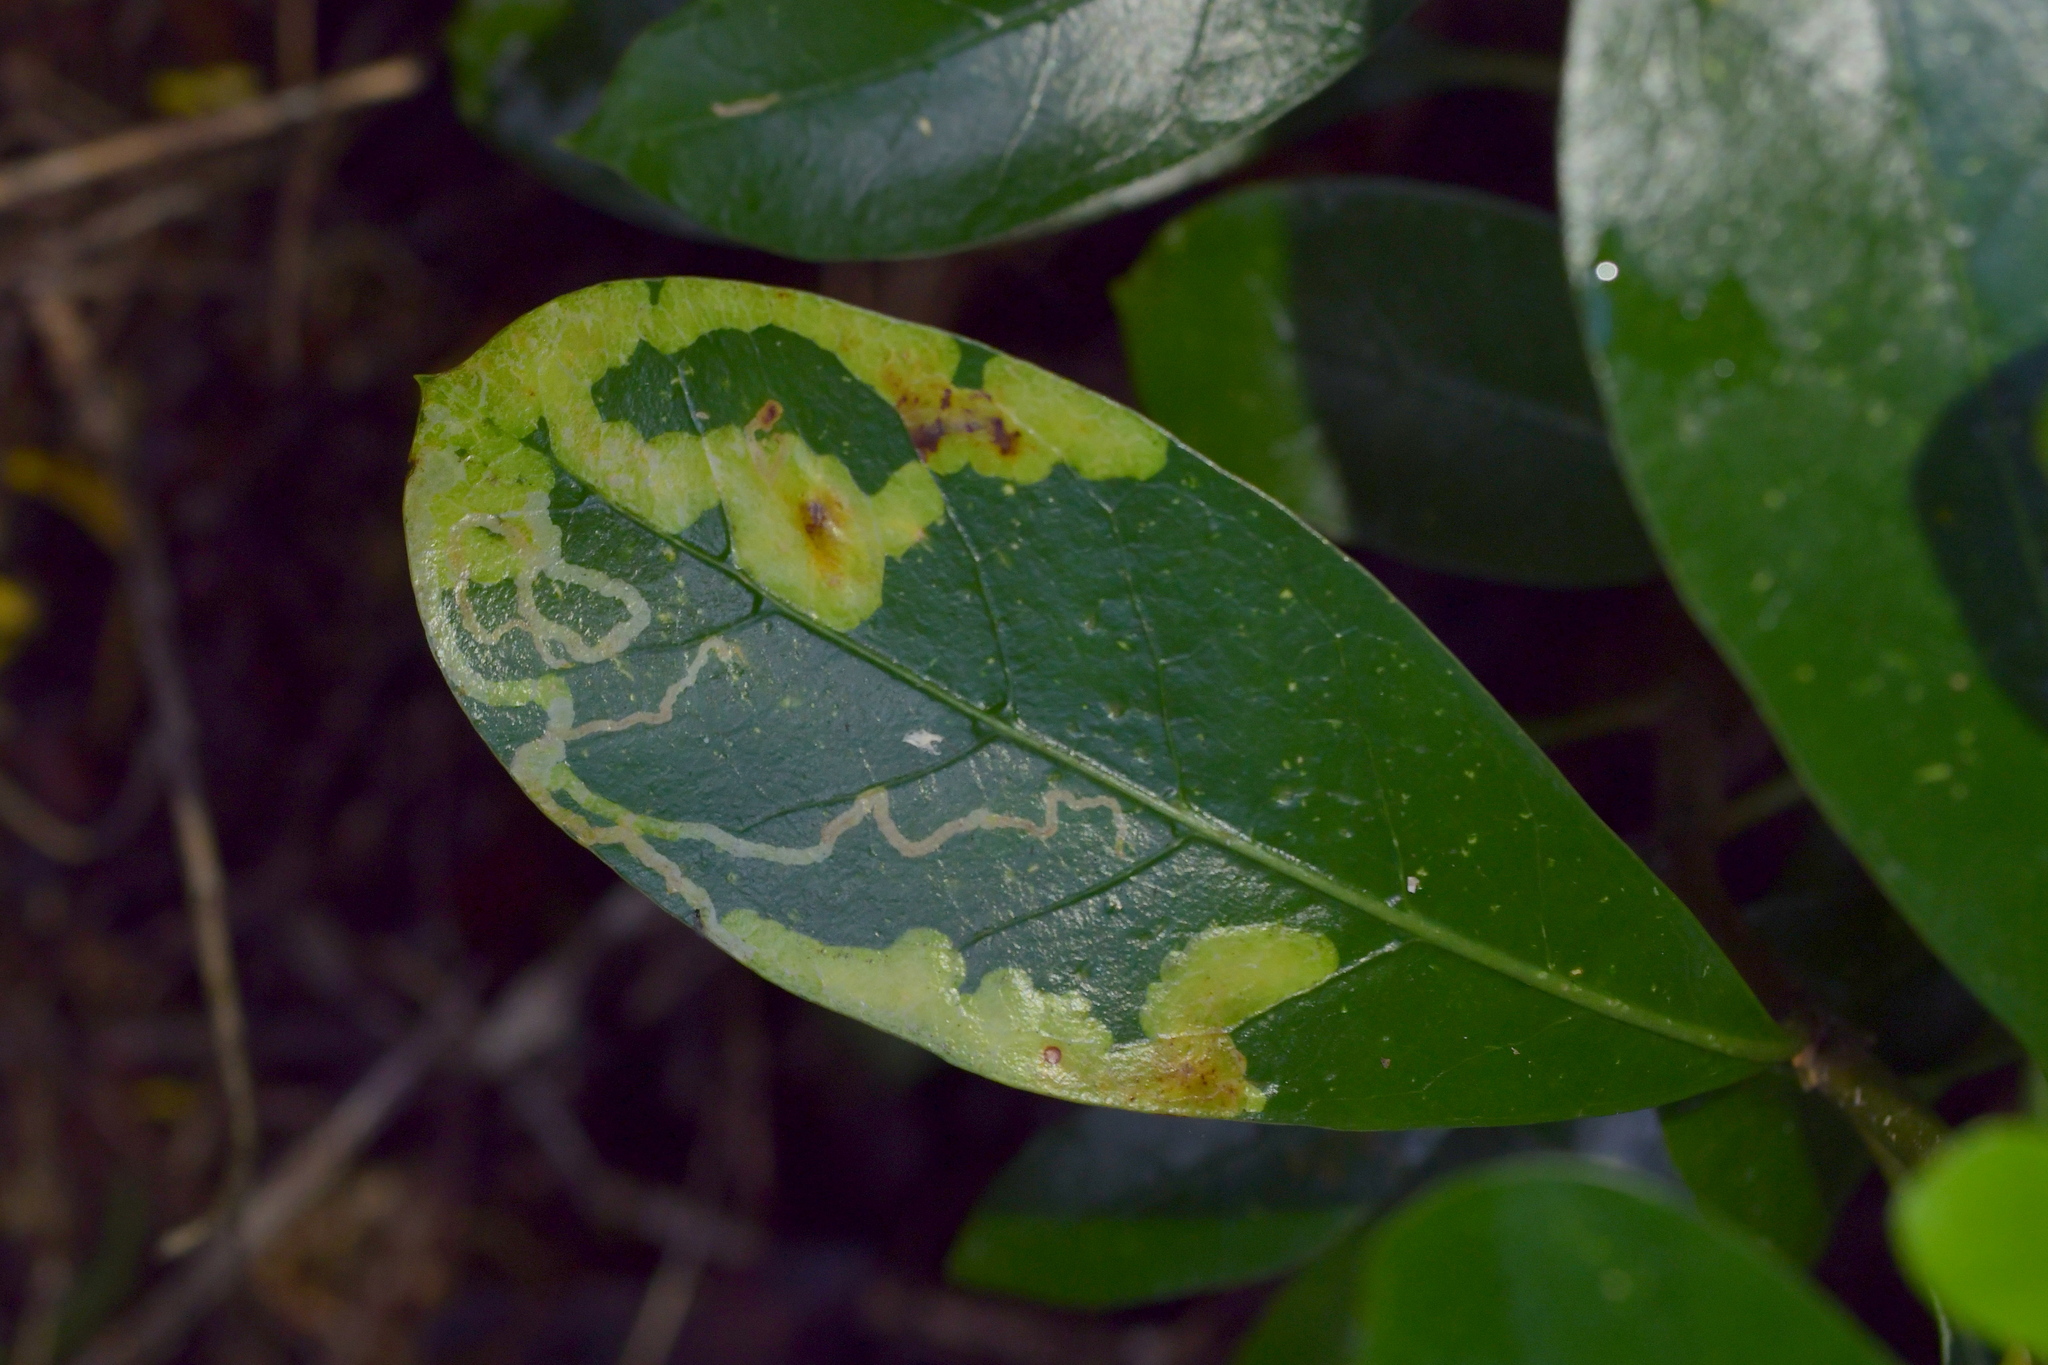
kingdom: Animalia
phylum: Arthropoda
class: Insecta
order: Lepidoptera
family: Gracillariidae
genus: Corythoxestis
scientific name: Corythoxestis zorionella
